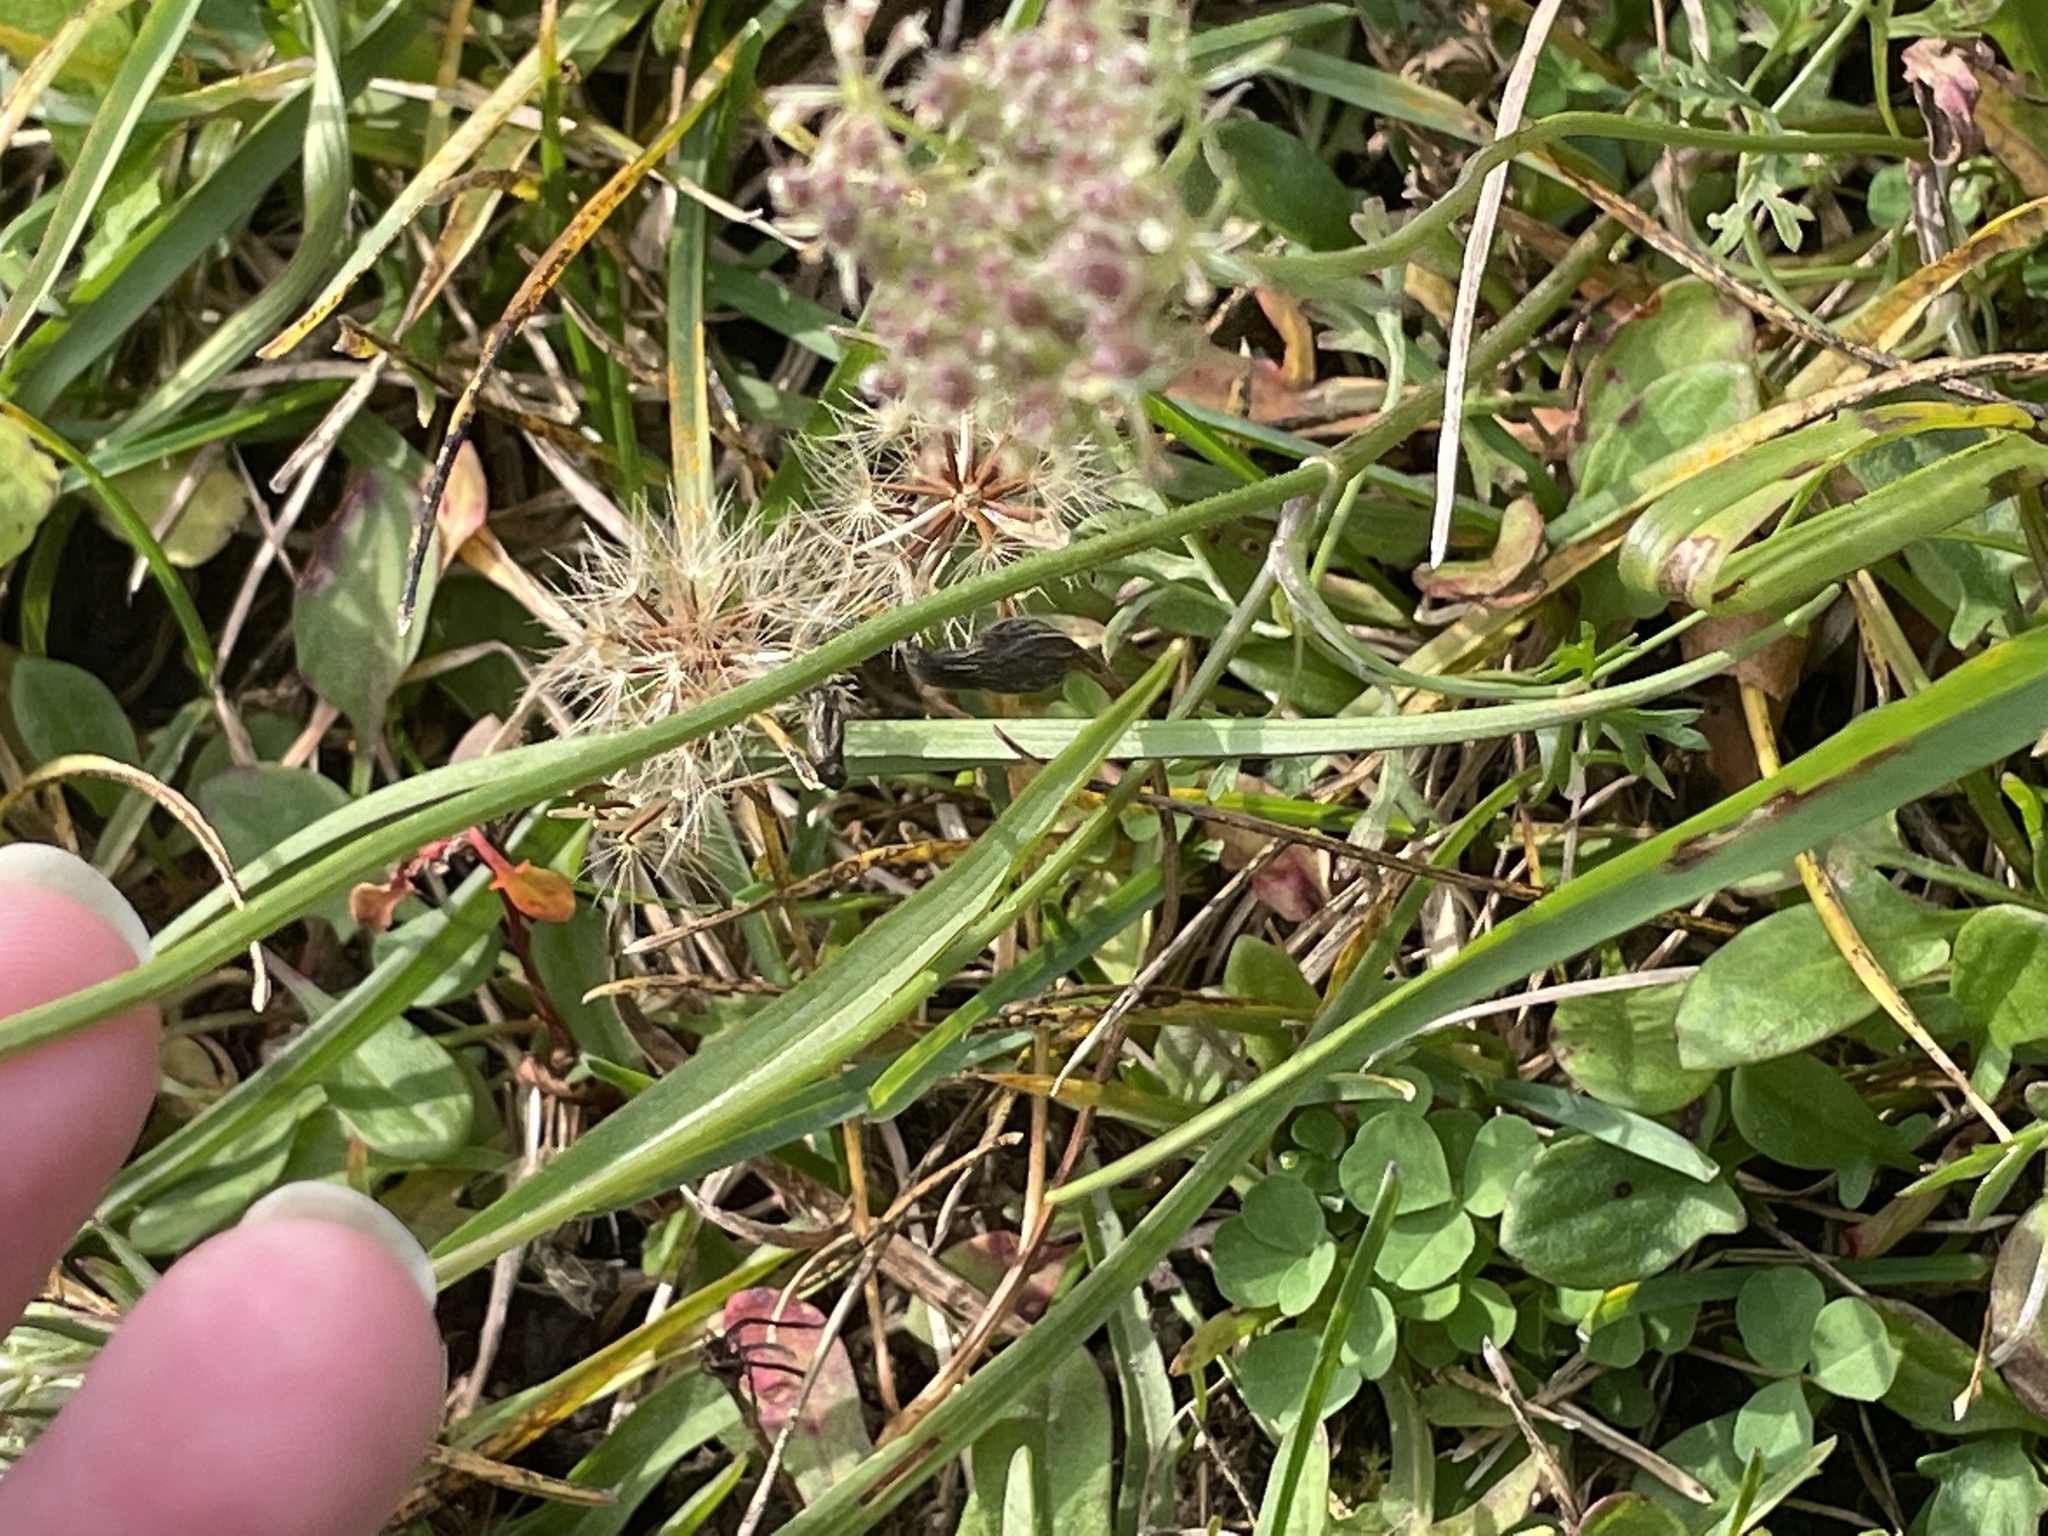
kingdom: Plantae
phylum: Tracheophyta
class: Magnoliopsida
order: Apiales
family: Apiaceae
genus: Daucus
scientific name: Daucus carota
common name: Wild carrot
